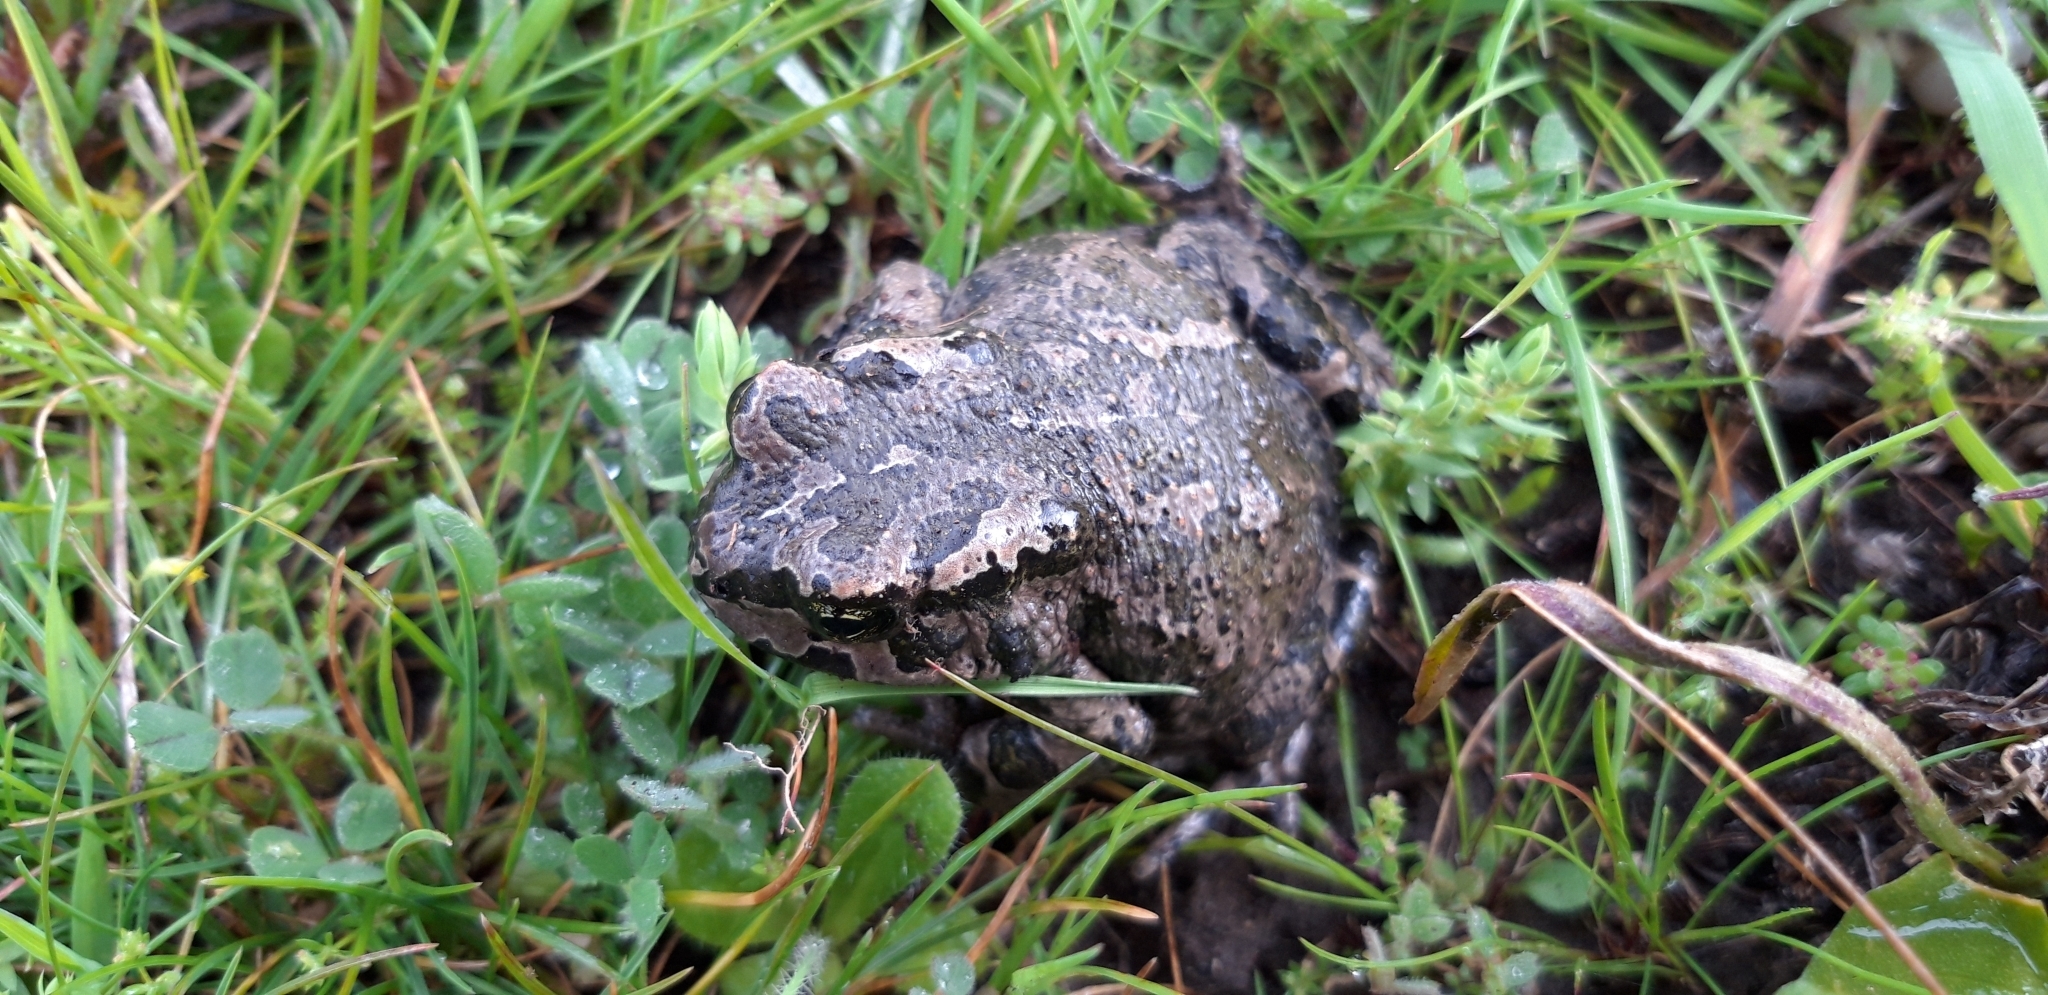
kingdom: Animalia
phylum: Chordata
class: Amphibia
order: Anura
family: Bufonidae
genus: Bufotes
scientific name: Bufotes cypriensis
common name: Cyprus green toad
